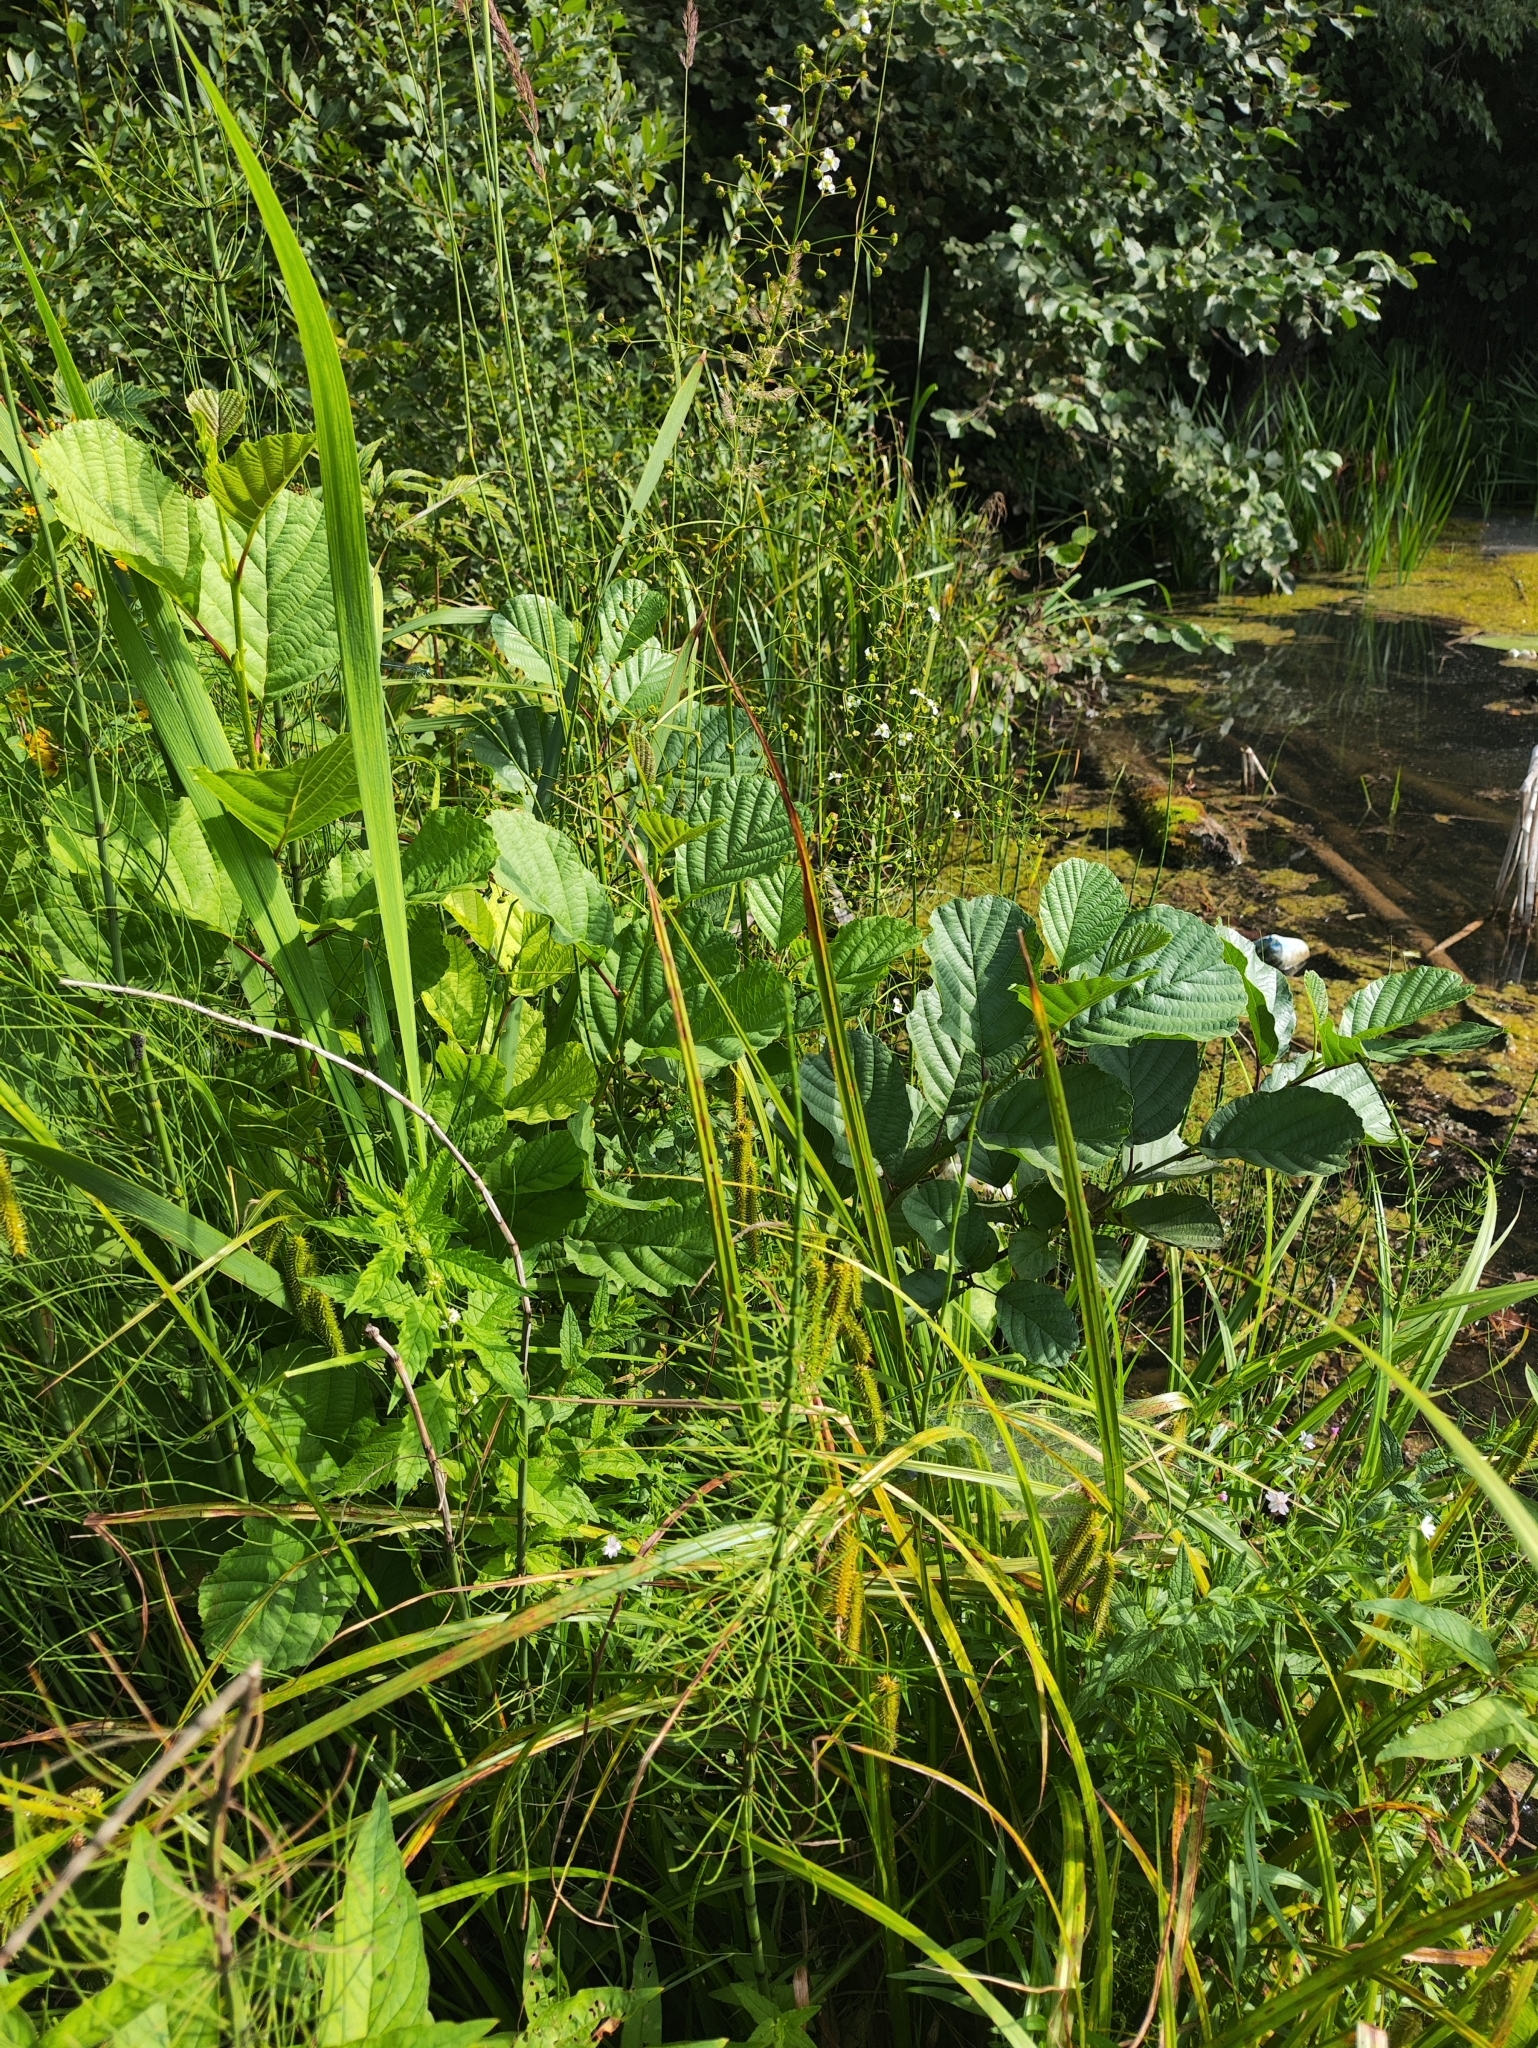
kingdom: Plantae
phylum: Tracheophyta
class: Magnoliopsida
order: Fagales
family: Betulaceae
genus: Alnus
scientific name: Alnus glutinosa
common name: Black alder
